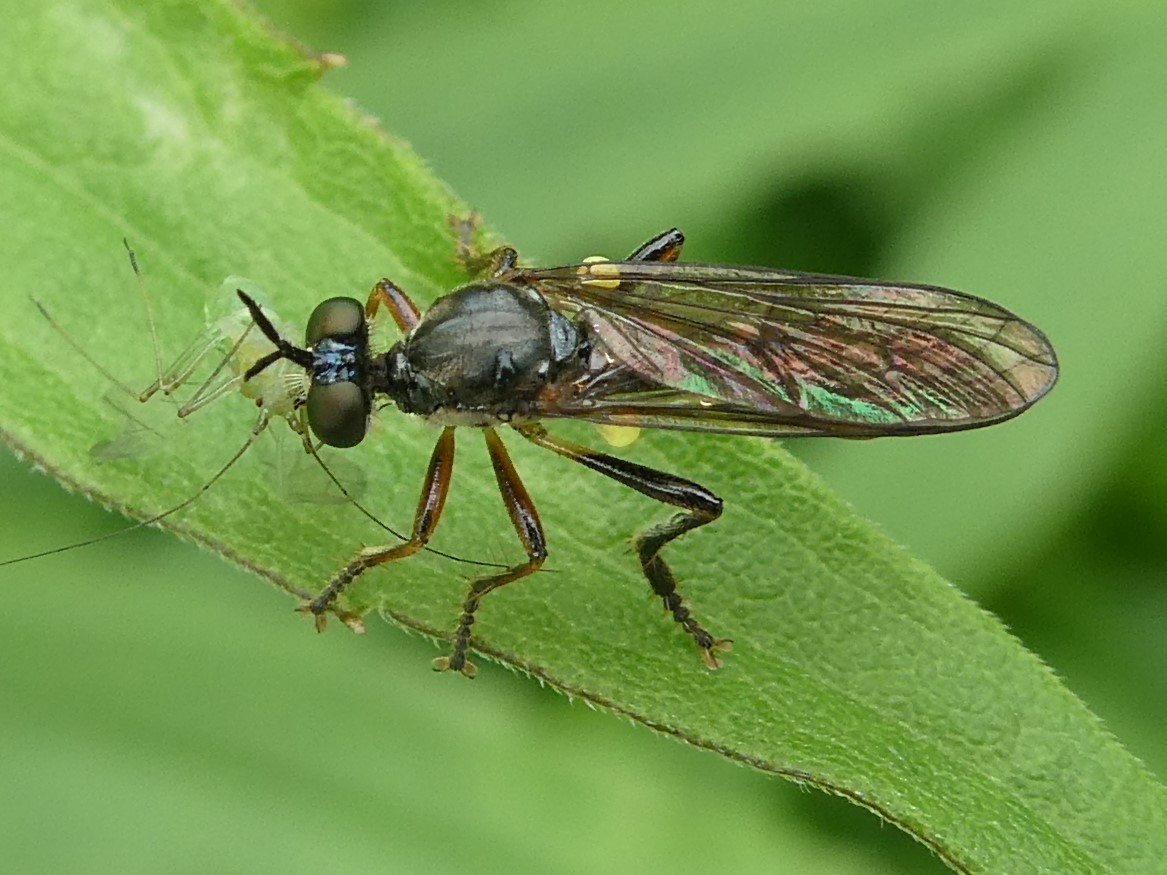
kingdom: Animalia
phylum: Arthropoda
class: Insecta
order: Diptera
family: Asilidae
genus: Dioctria
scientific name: Dioctria hyalipennis
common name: Stripe-legged robberfly
